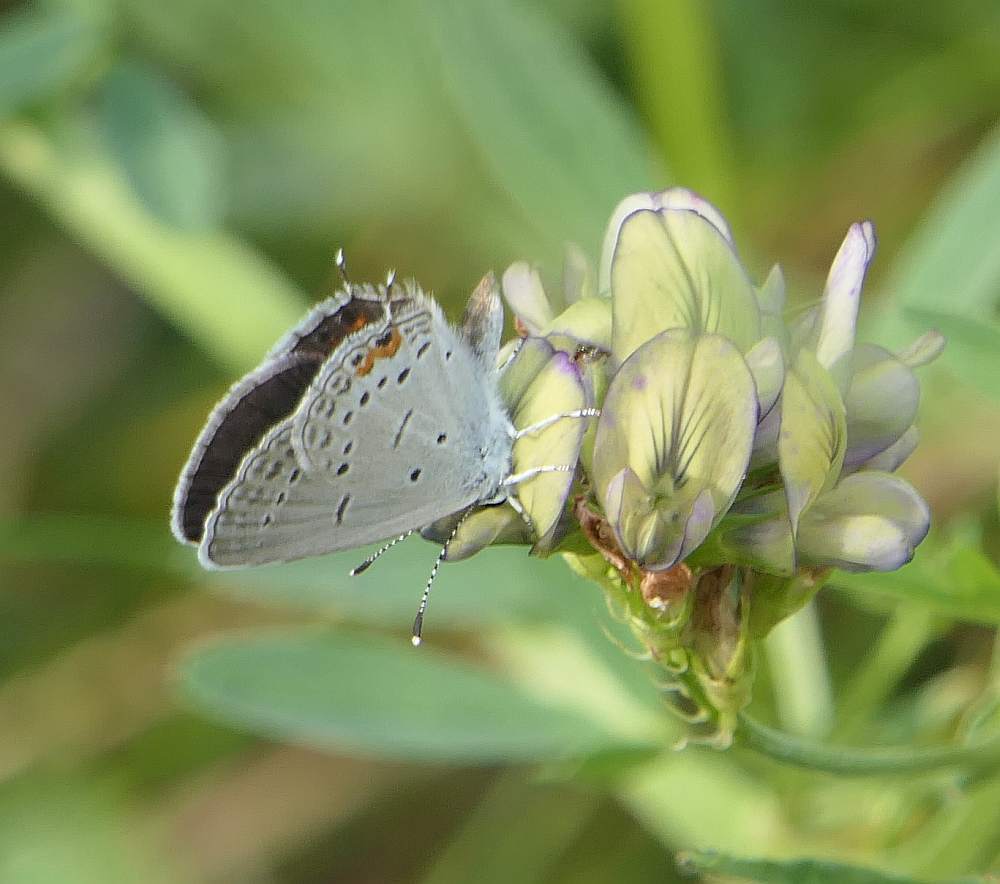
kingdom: Animalia
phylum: Arthropoda
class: Insecta
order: Lepidoptera
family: Lycaenidae
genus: Elkalyce
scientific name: Elkalyce comyntas
